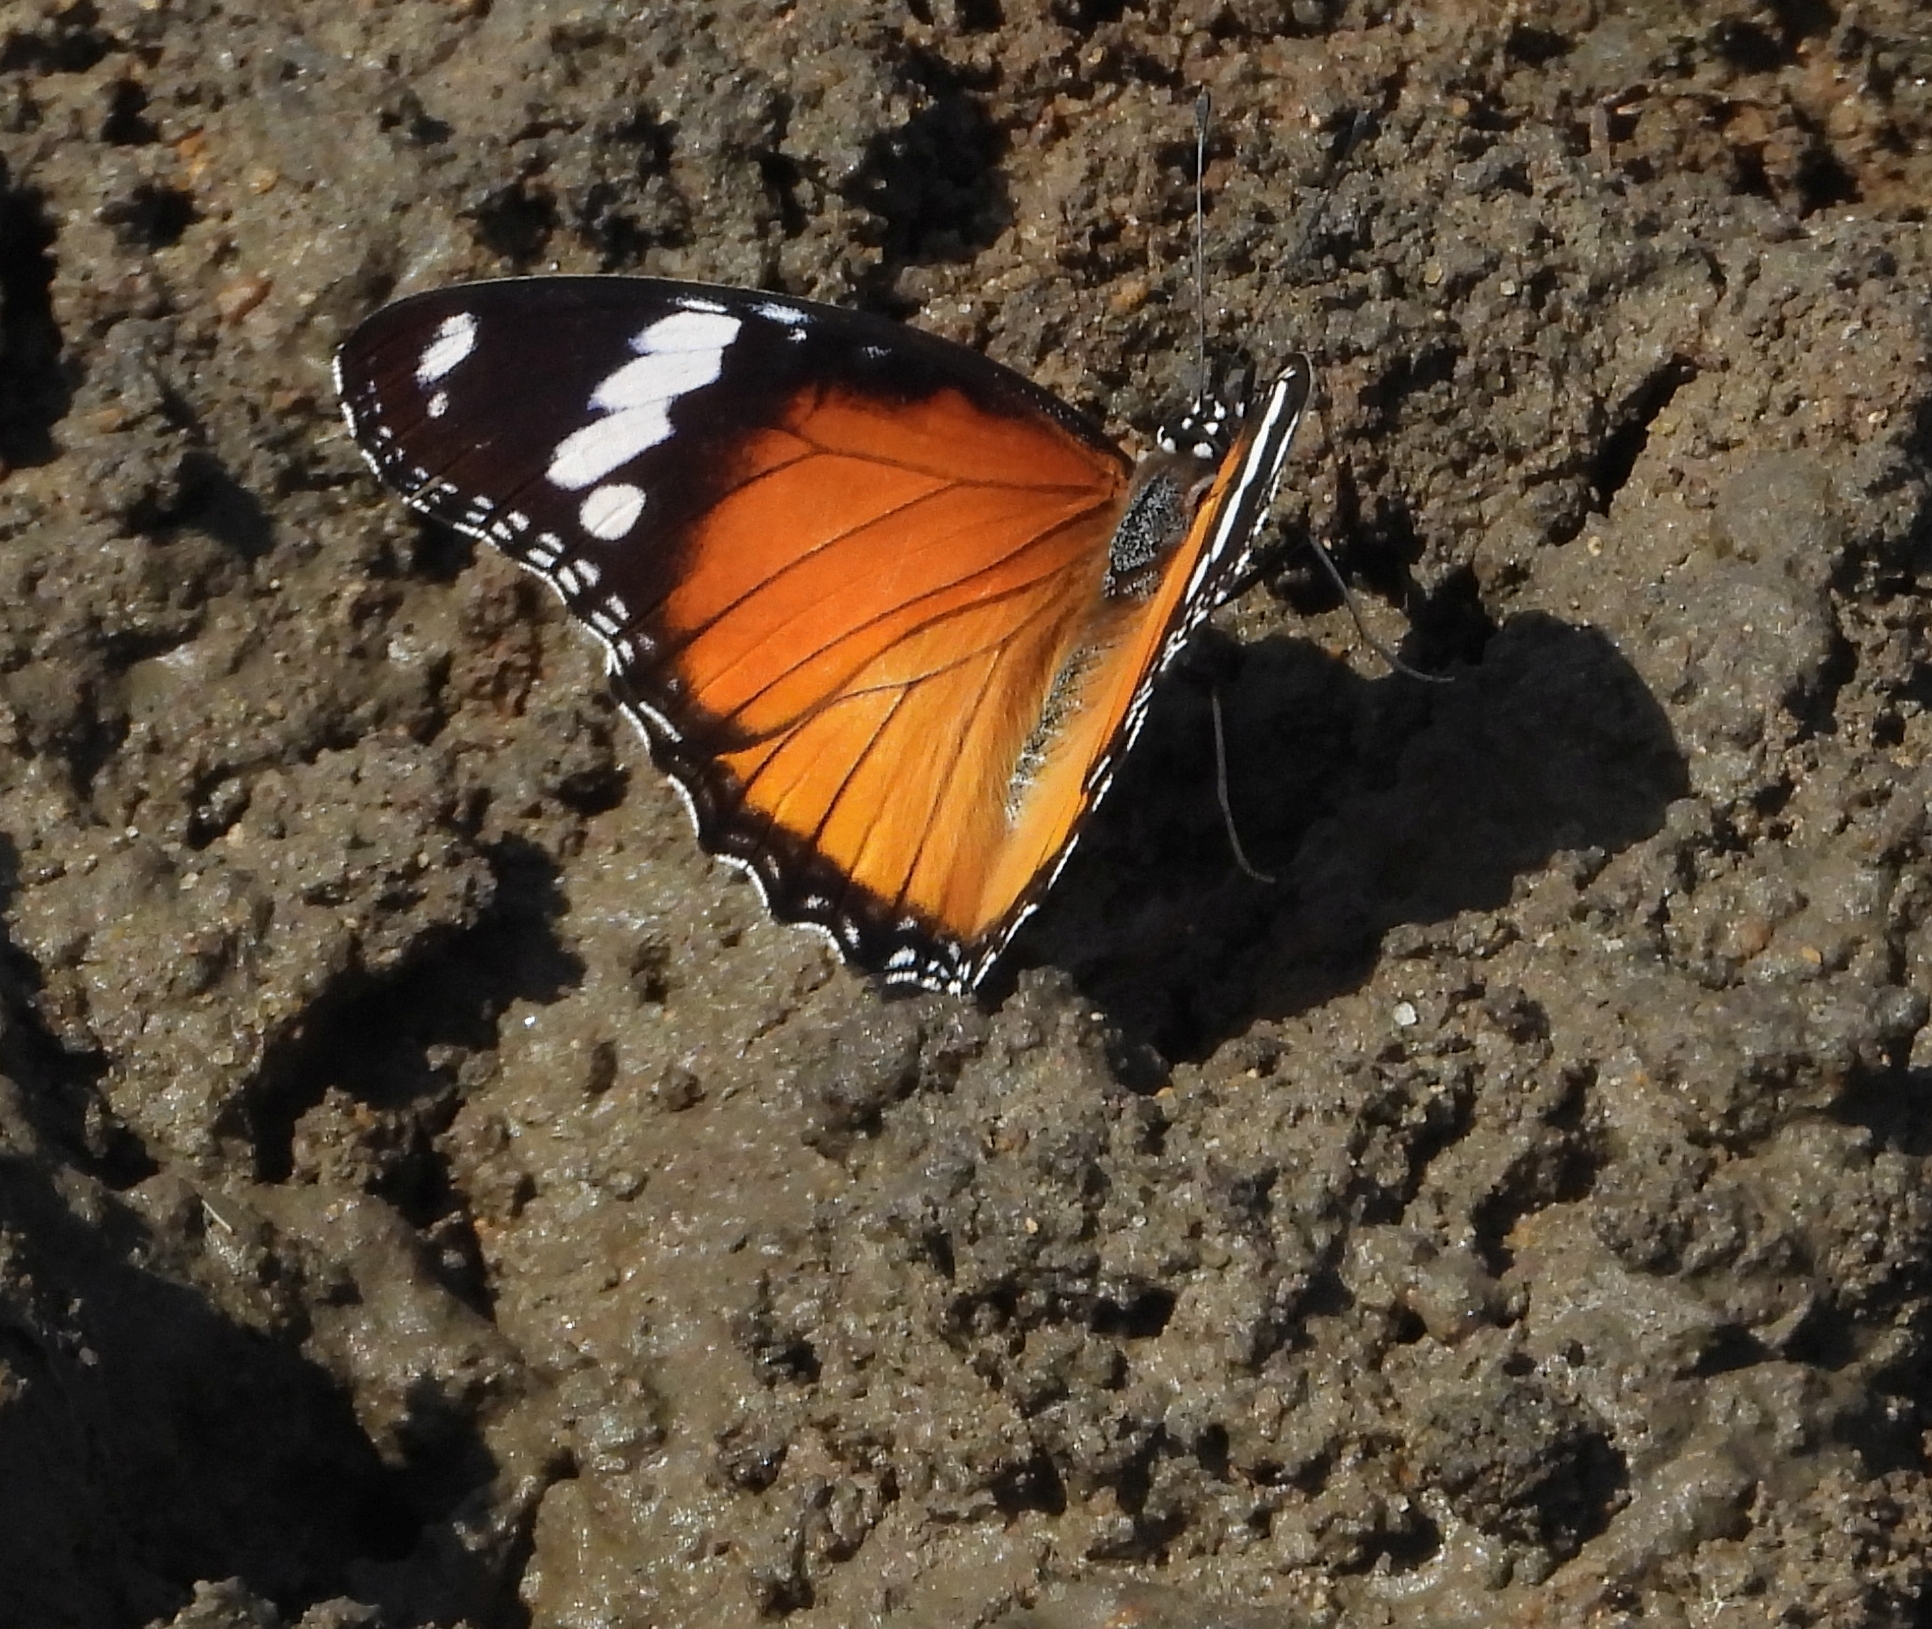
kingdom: Animalia
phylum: Arthropoda
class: Insecta
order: Lepidoptera
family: Nymphalidae
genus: Hypolimnas
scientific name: Hypolimnas misippus
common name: False plain tiger
